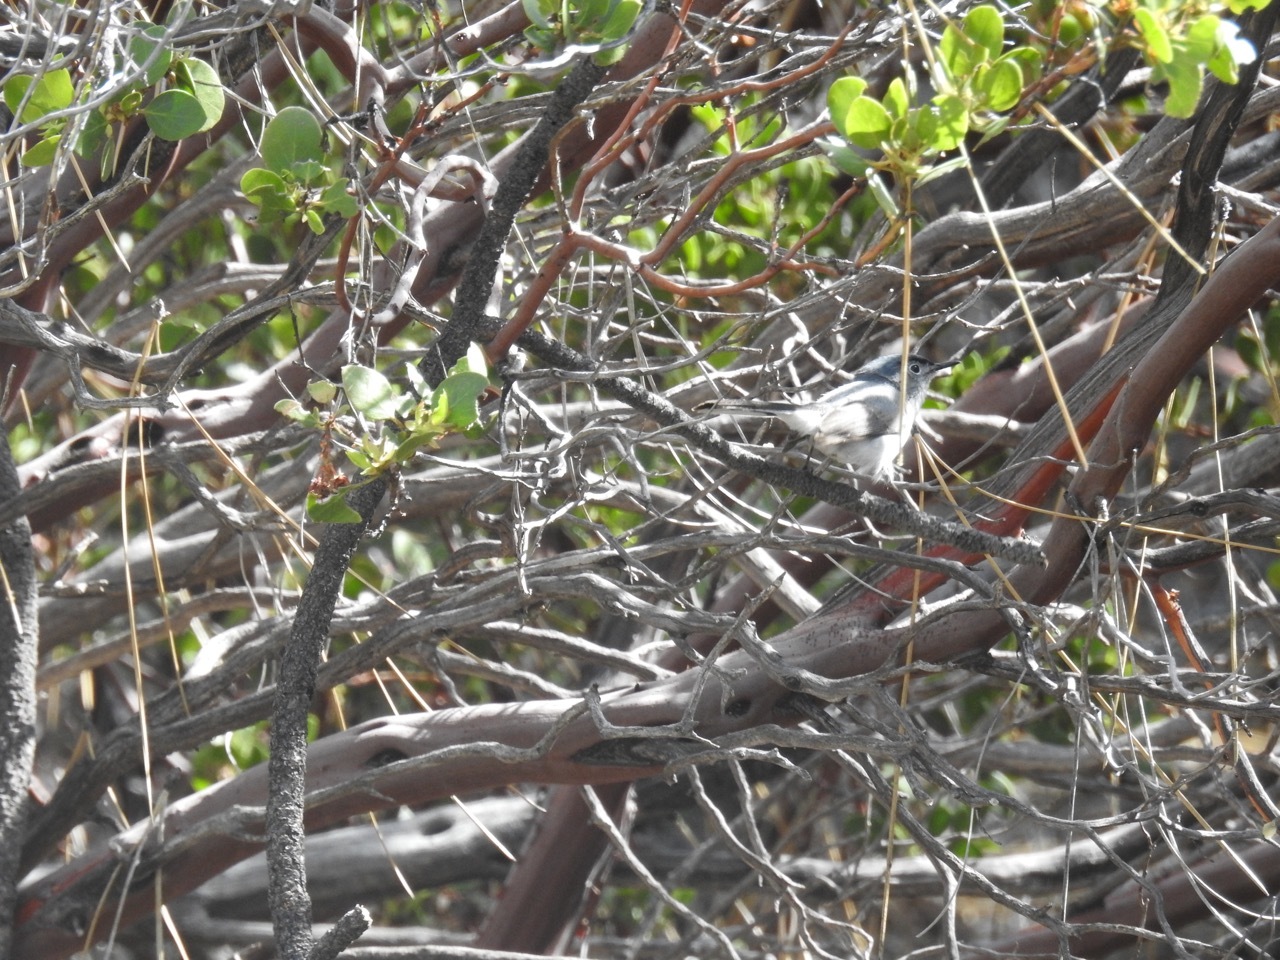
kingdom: Animalia
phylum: Chordata
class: Aves
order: Passeriformes
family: Polioptilidae
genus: Polioptila
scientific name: Polioptila caerulea
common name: Blue-gray gnatcatcher
